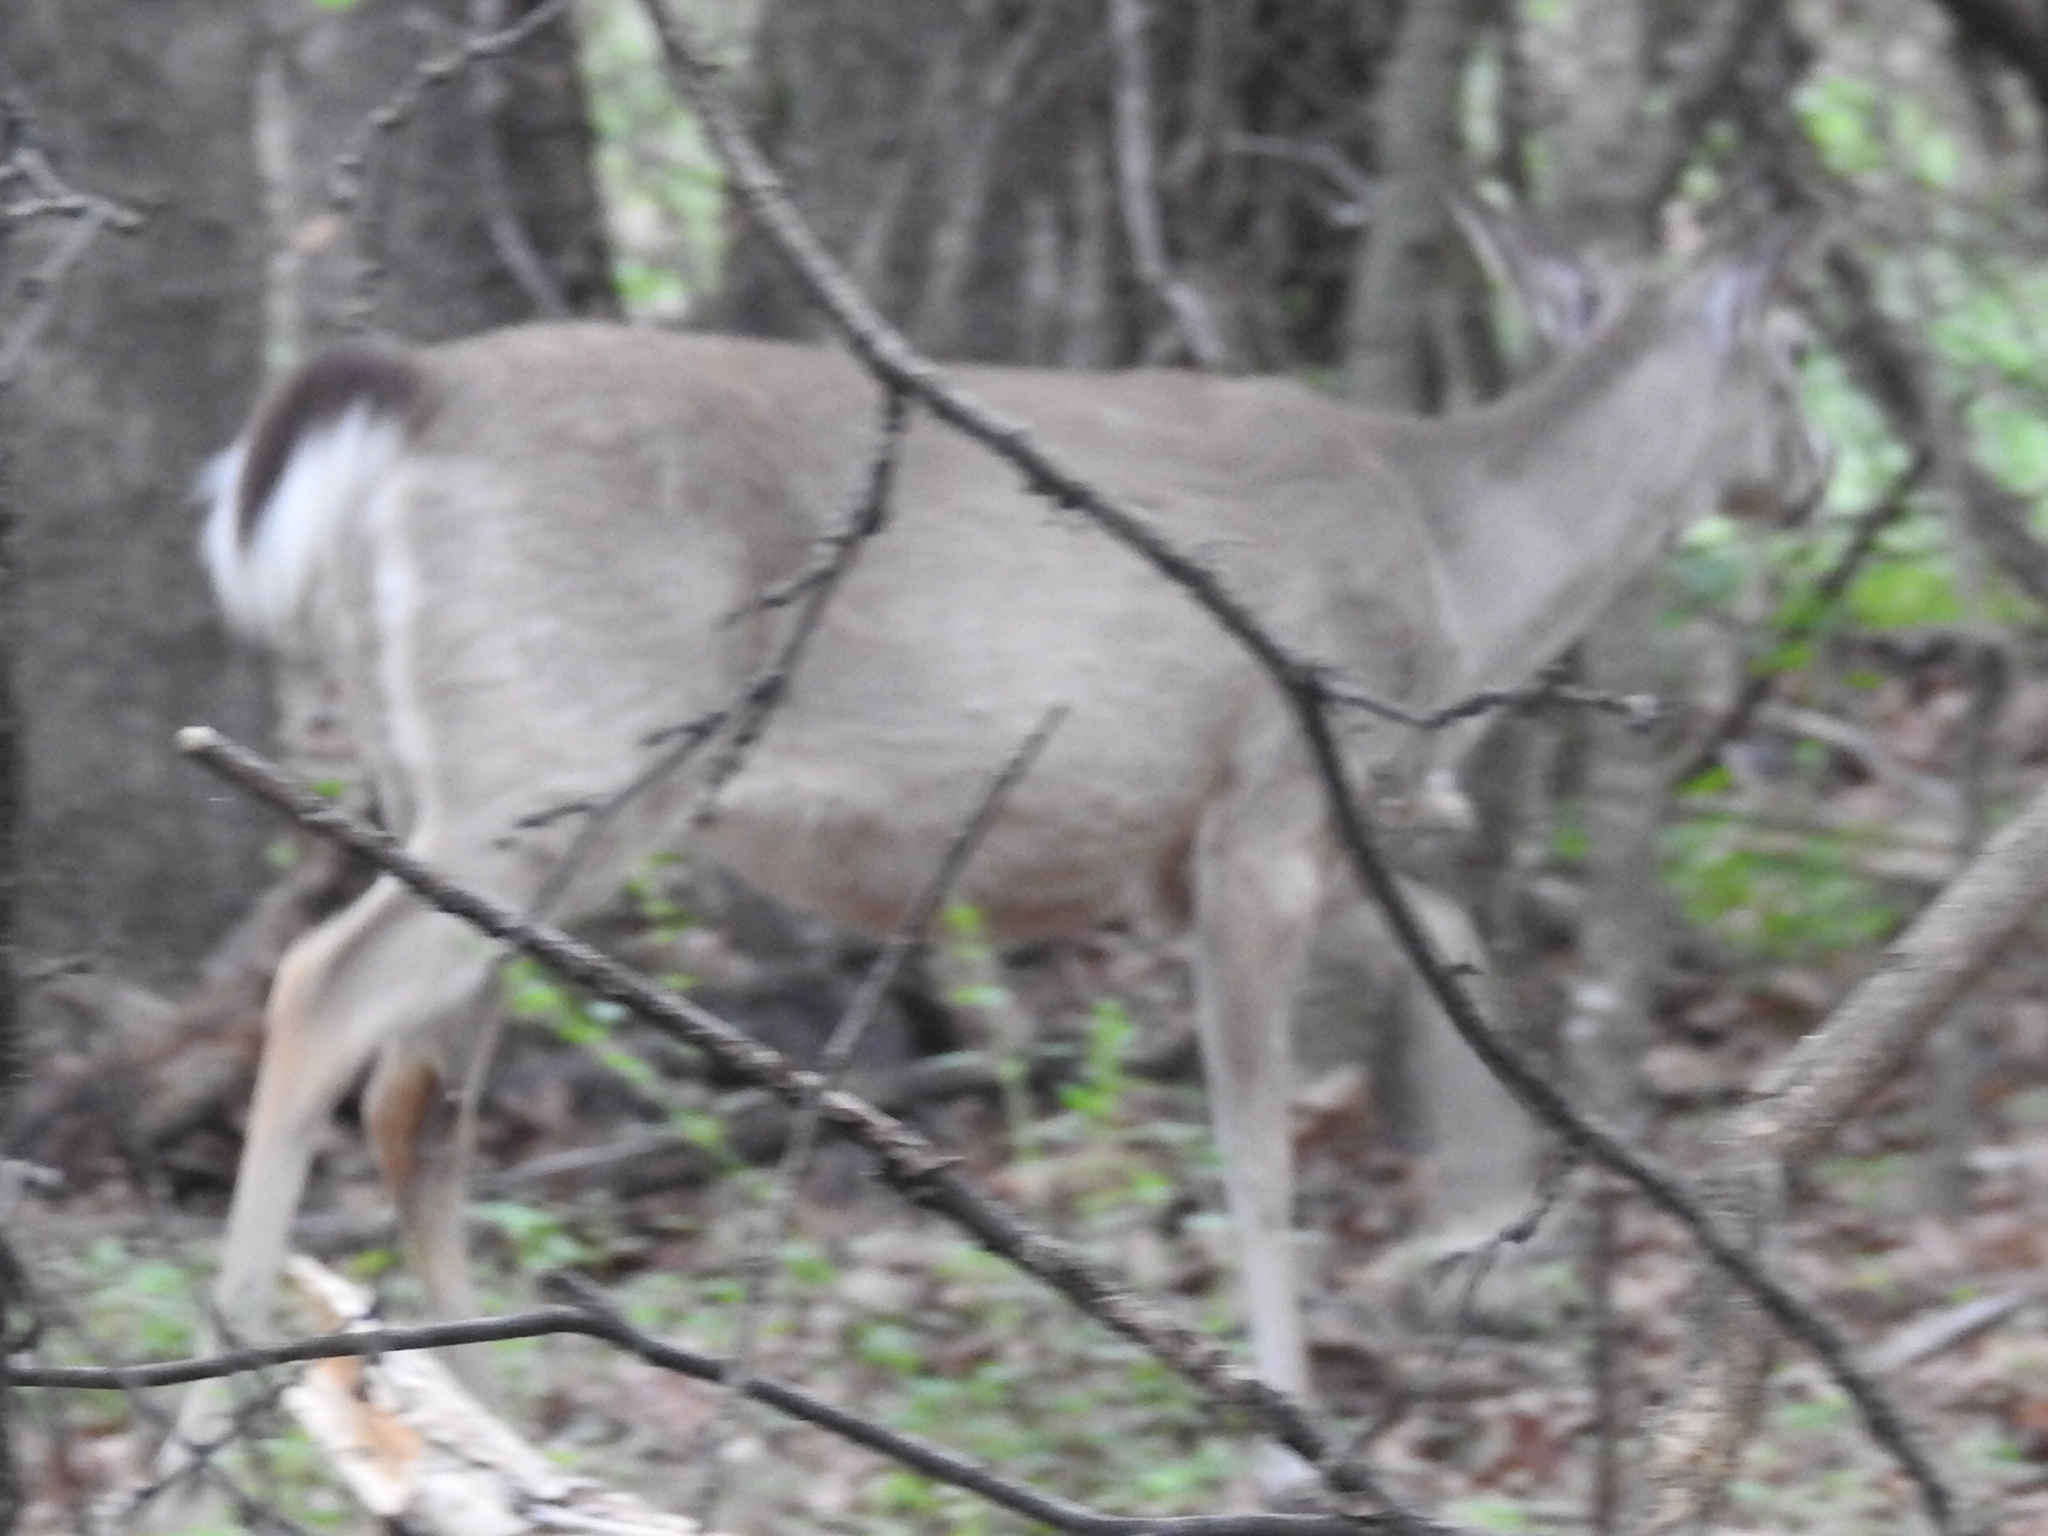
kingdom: Animalia
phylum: Chordata
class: Mammalia
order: Artiodactyla
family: Cervidae
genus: Odocoileus
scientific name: Odocoileus virginianus
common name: White-tailed deer
